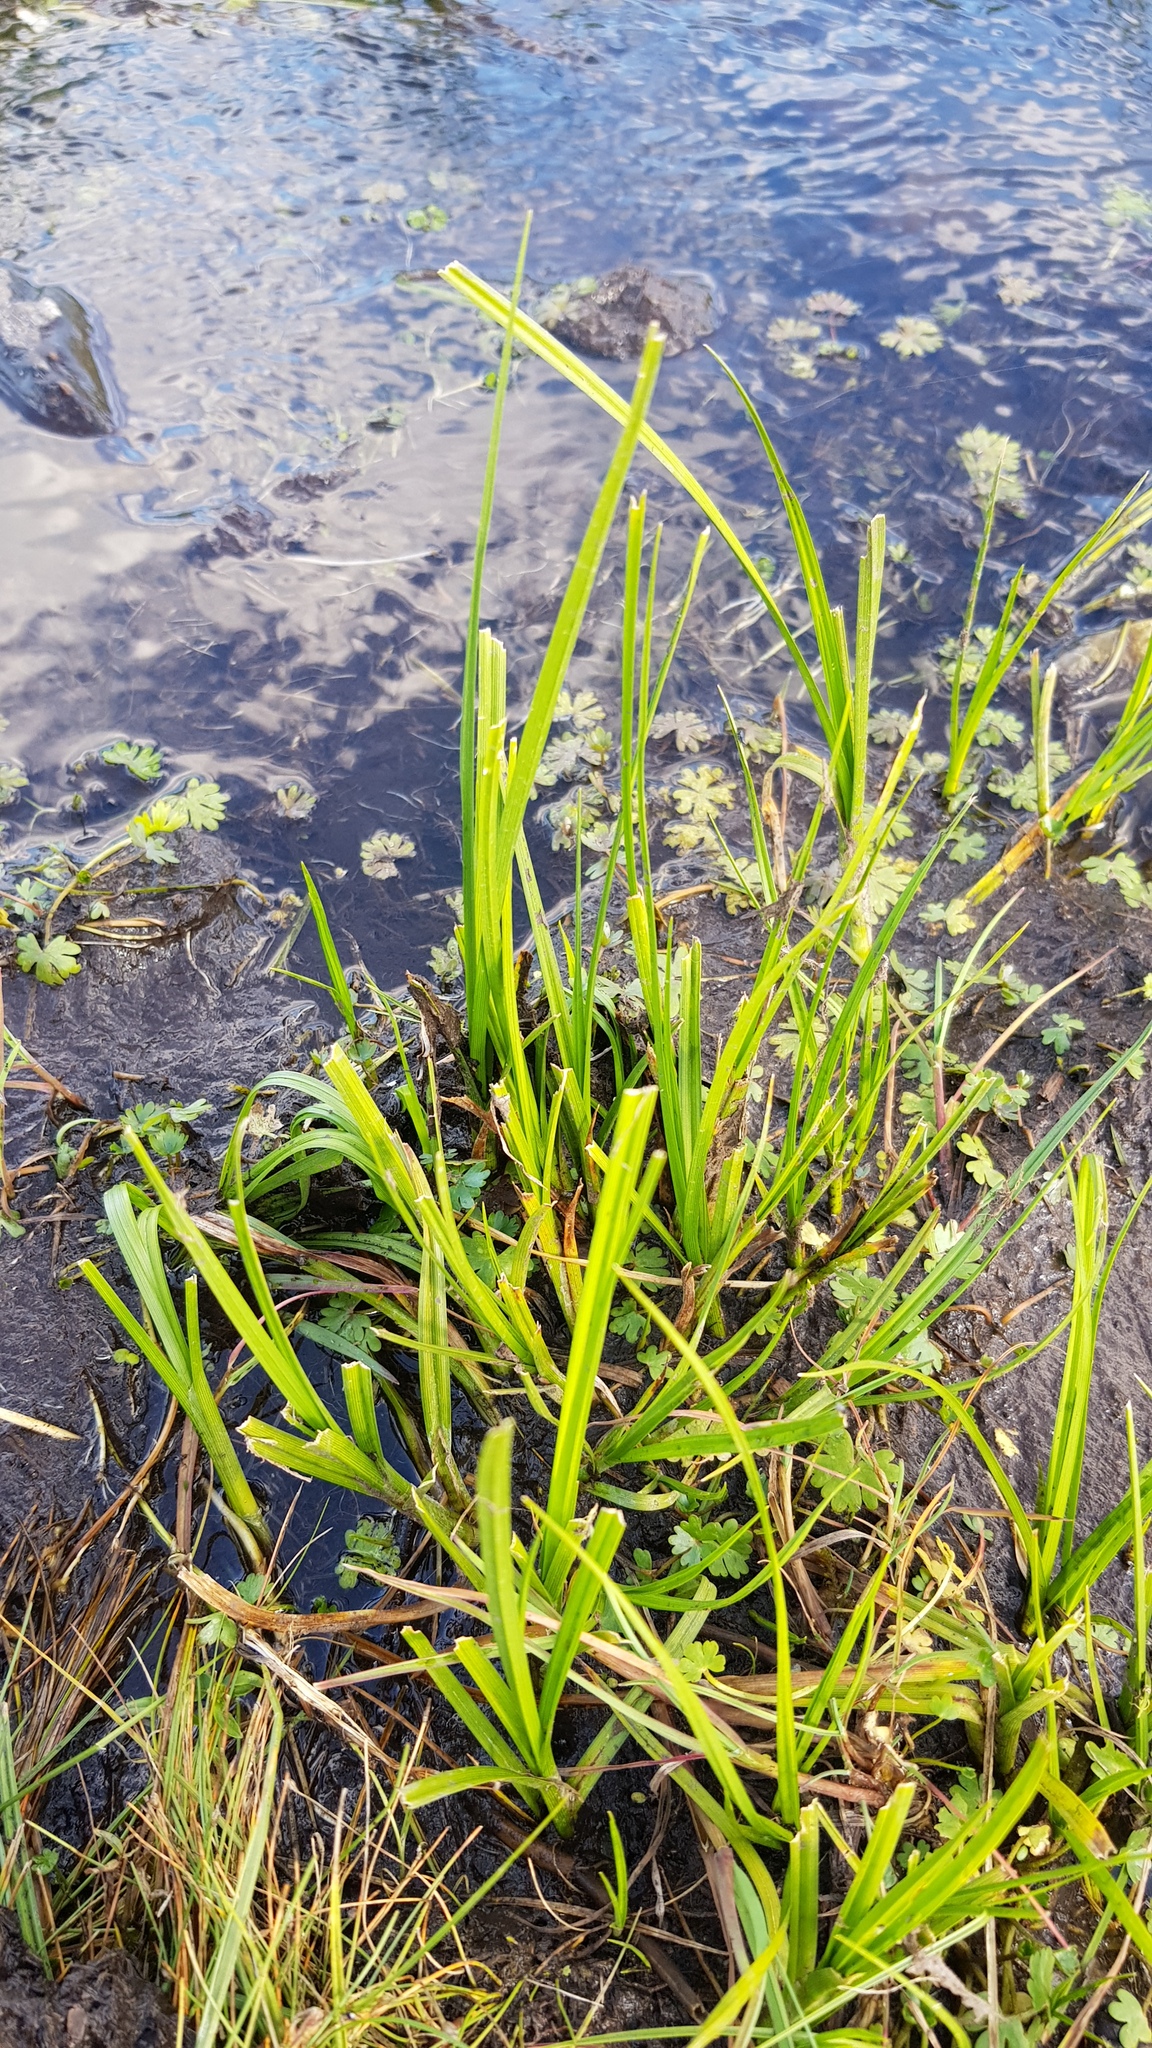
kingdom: Plantae
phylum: Tracheophyta
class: Liliopsida
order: Acorales
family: Acoraceae
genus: Acorus
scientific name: Acorus calamus
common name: Sweet-flag
